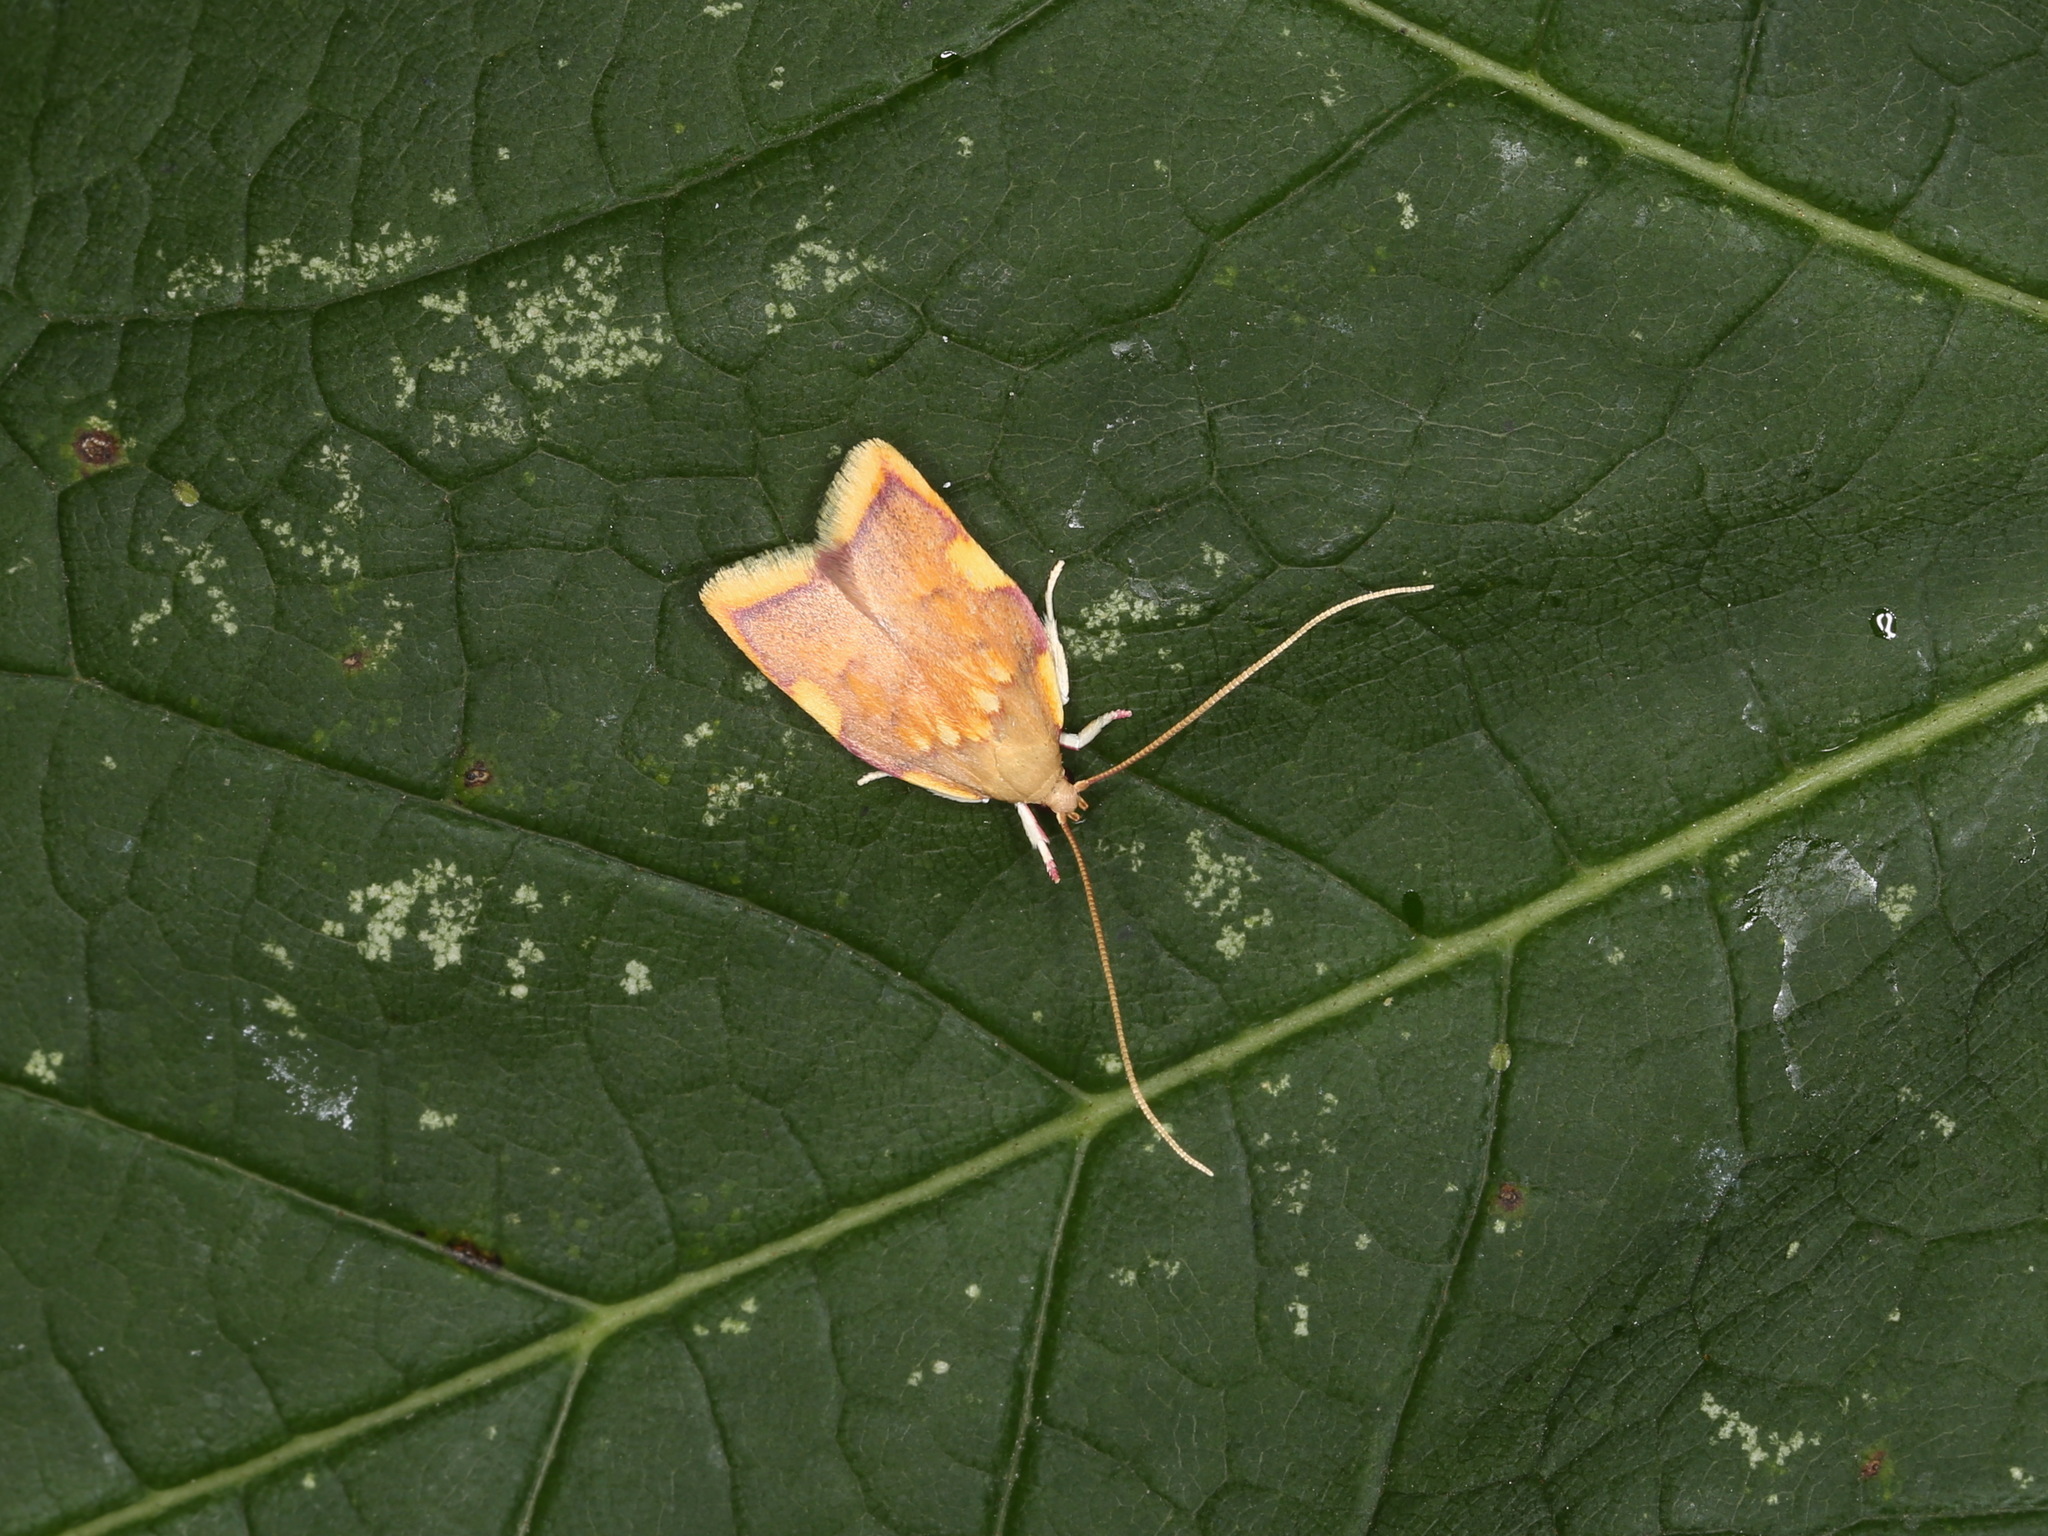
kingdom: Animalia
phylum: Arthropoda
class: Insecta
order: Lepidoptera
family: Peleopodidae
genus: Carcina
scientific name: Carcina quercana
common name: Moth
